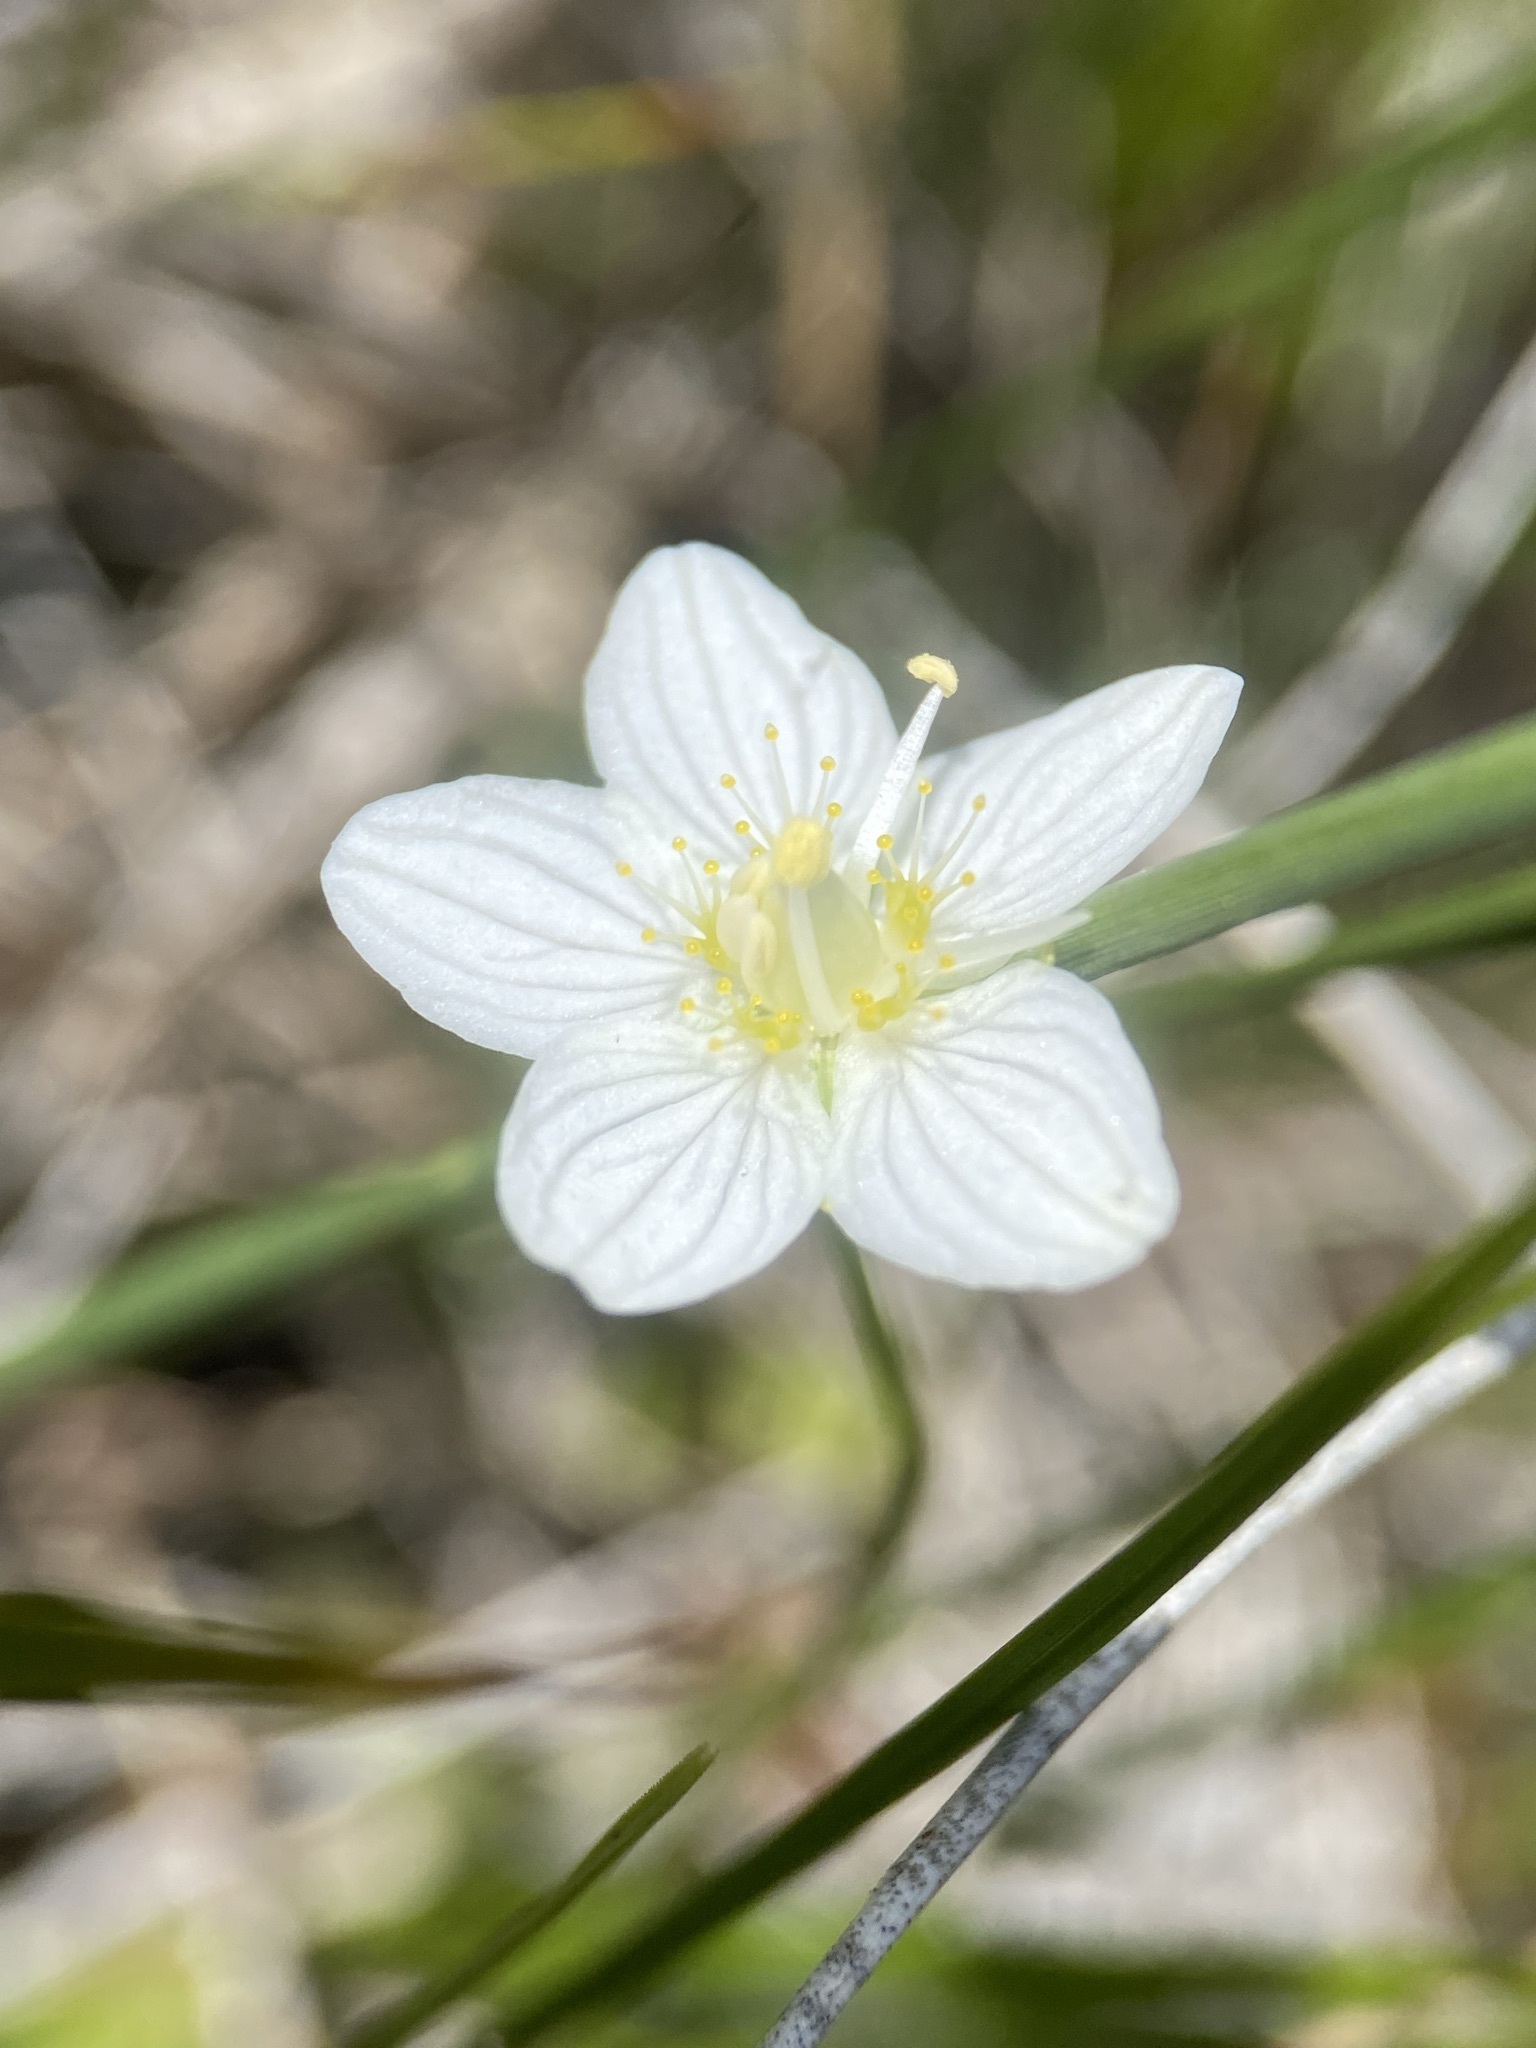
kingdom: Plantae
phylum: Tracheophyta
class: Magnoliopsida
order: Celastrales
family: Parnassiaceae
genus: Parnassia
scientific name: Parnassia parviflora
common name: Small-flowered grass-of-parnassus
